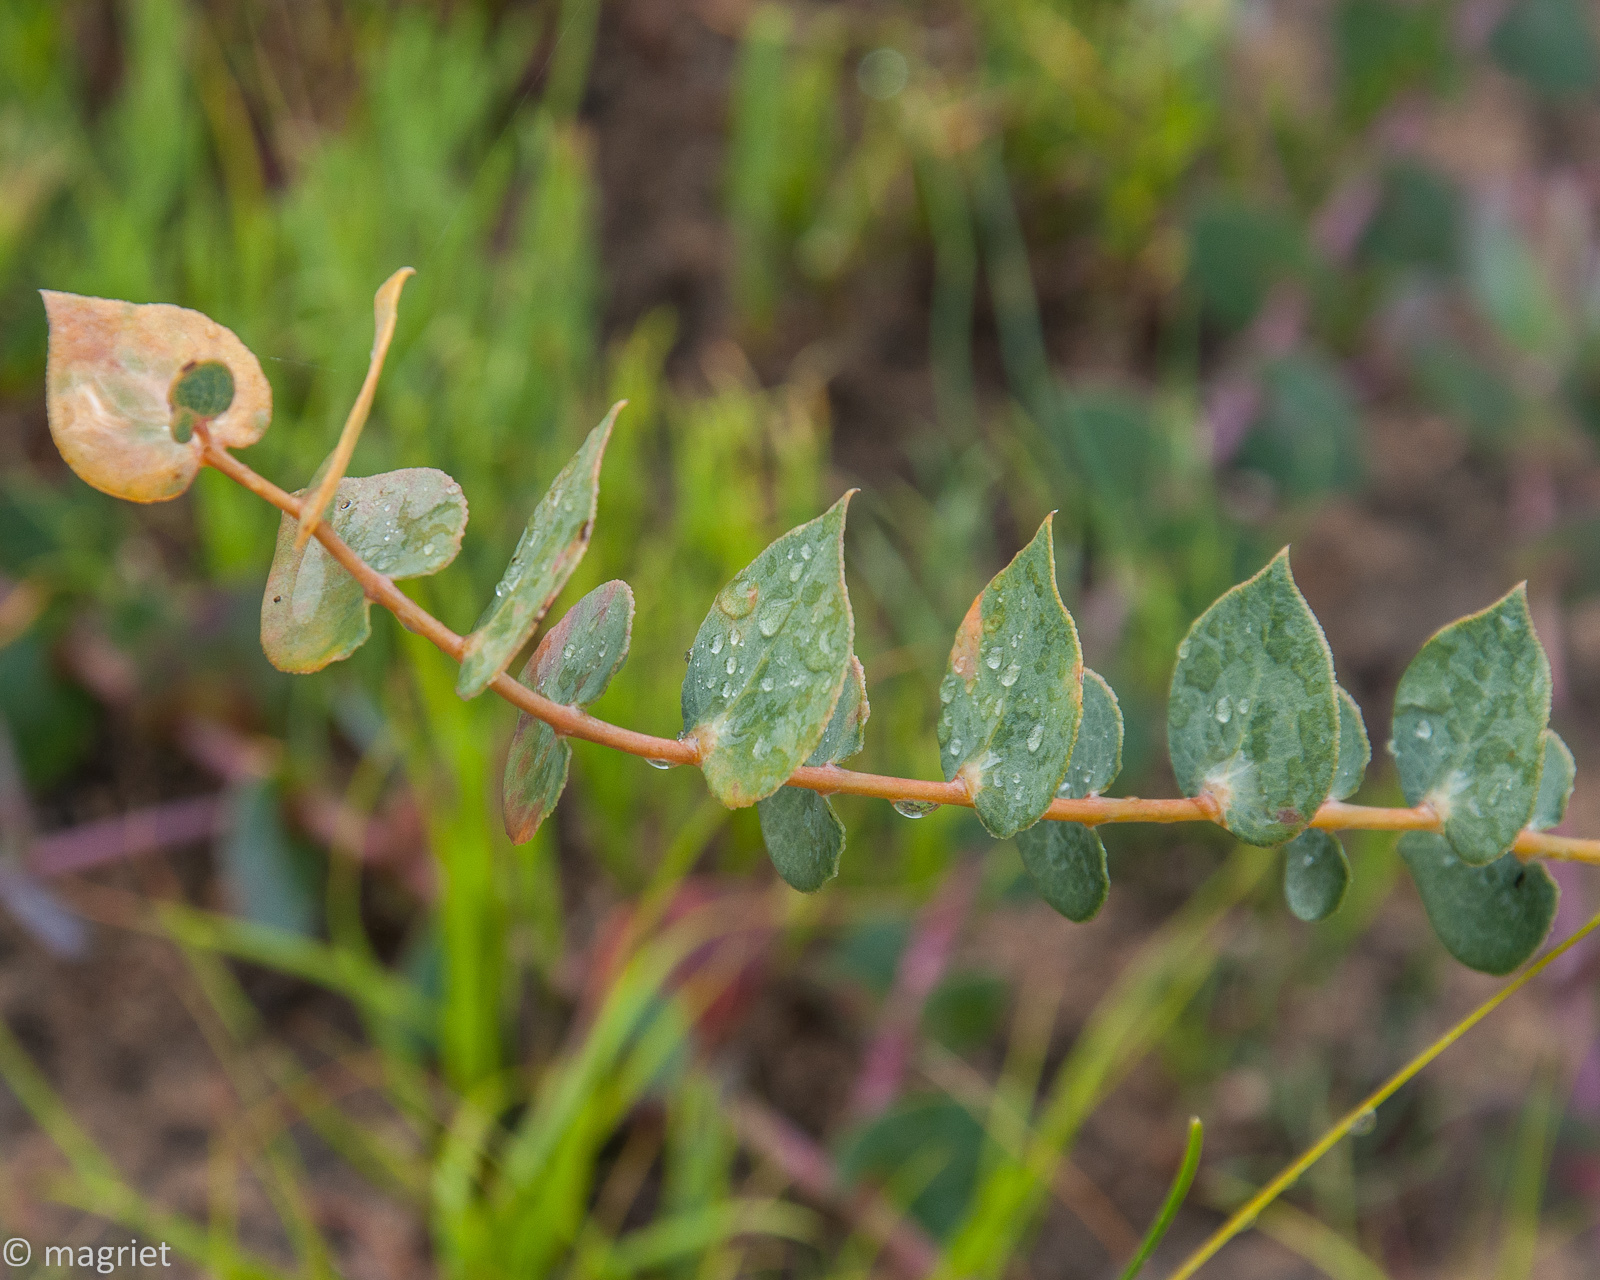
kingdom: Plantae
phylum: Tracheophyta
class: Magnoliopsida
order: Fabales
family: Fabaceae
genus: Rafnia
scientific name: Rafnia acuminata
